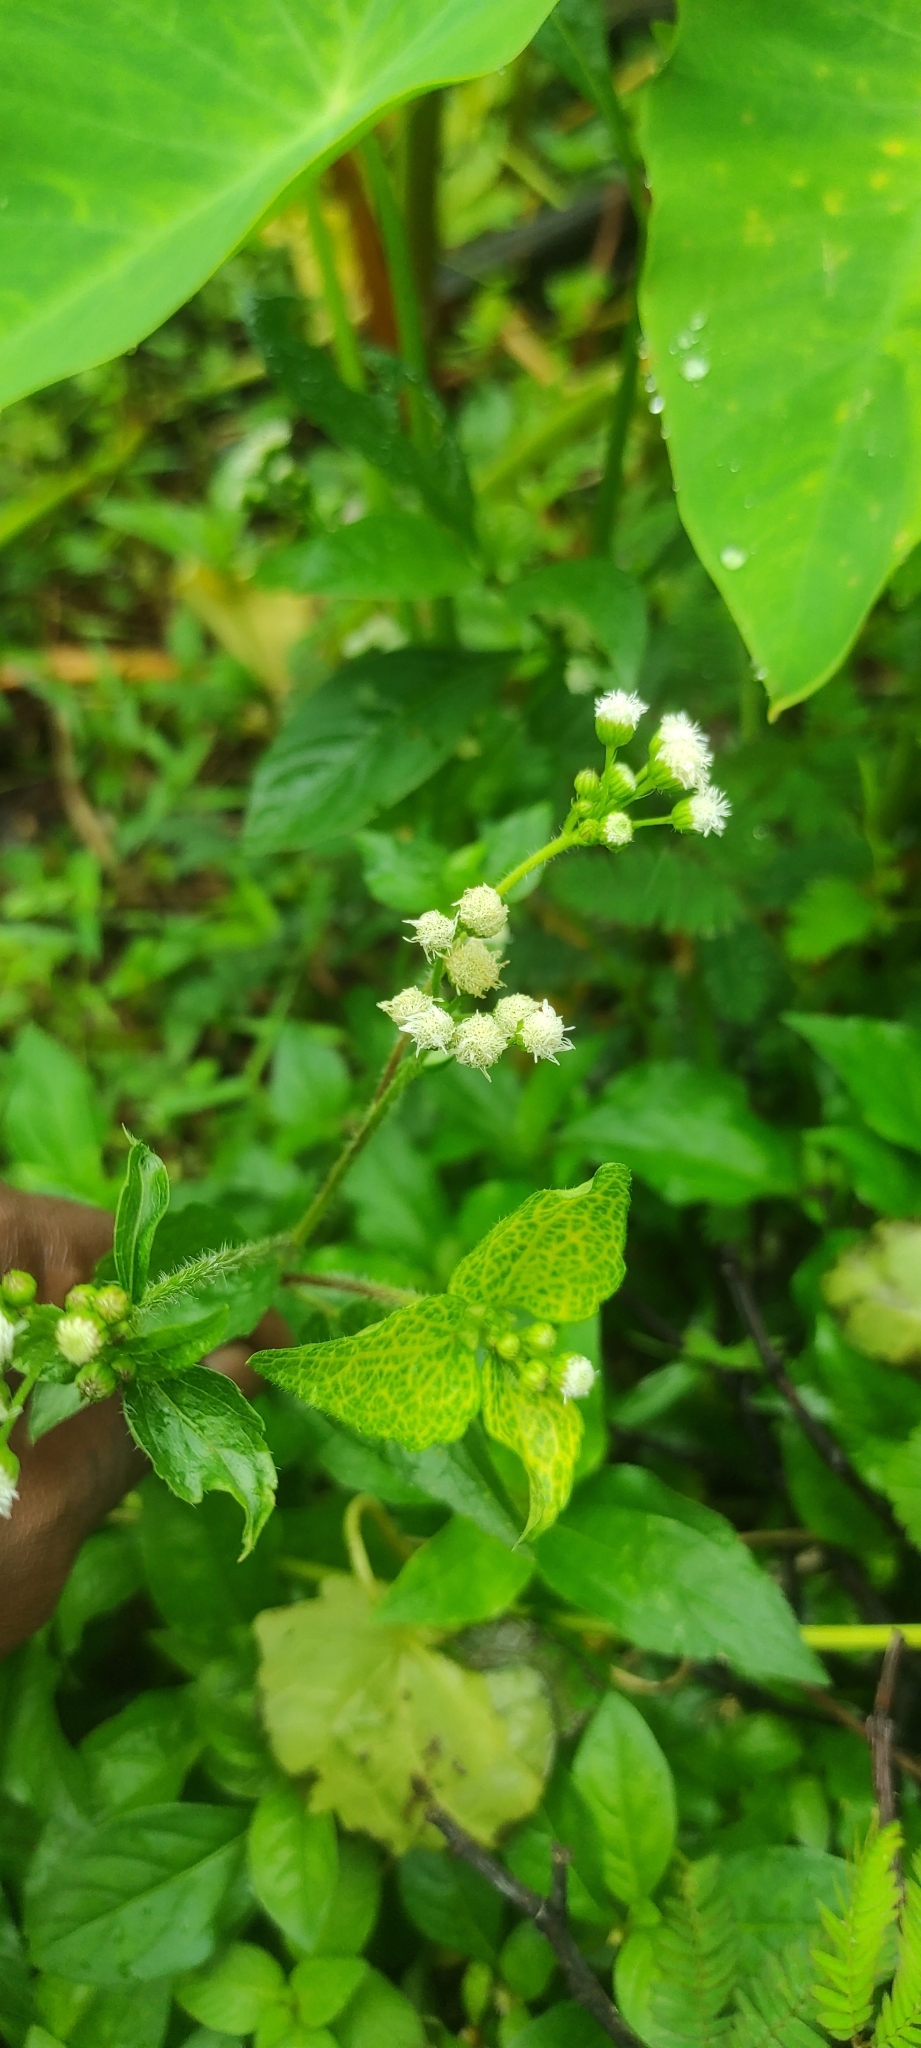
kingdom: Plantae
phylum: Tracheophyta
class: Magnoliopsida
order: Asterales
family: Asteraceae
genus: Ageratum
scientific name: Ageratum conyzoides
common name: Tropical whiteweed
